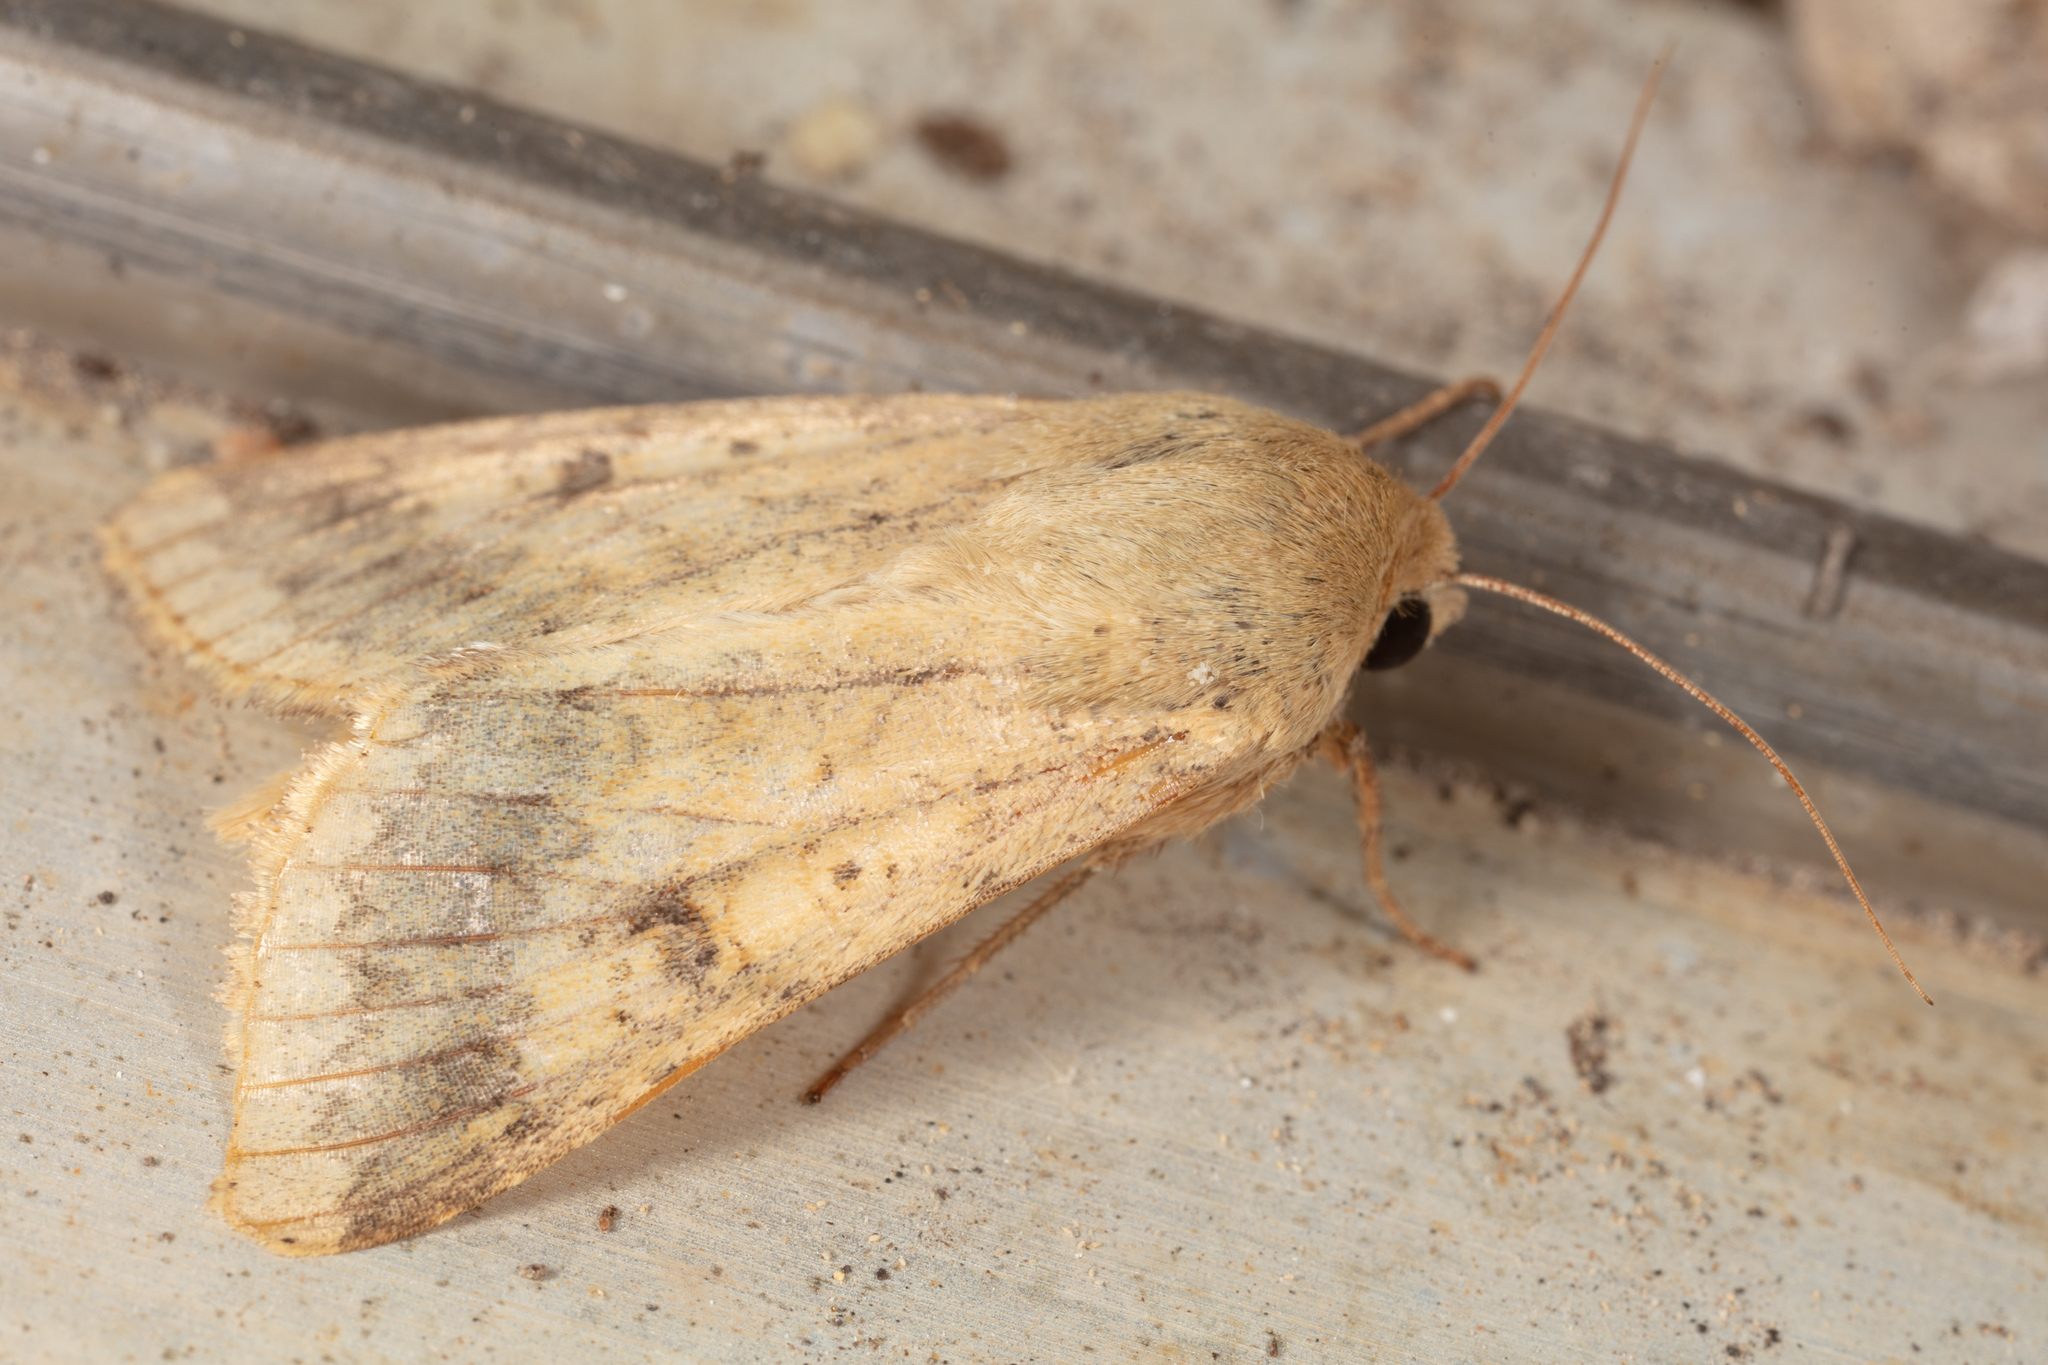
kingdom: Animalia
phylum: Arthropoda
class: Insecta
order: Lepidoptera
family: Noctuidae
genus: Helicoverpa
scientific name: Helicoverpa zea
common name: Bollworm
